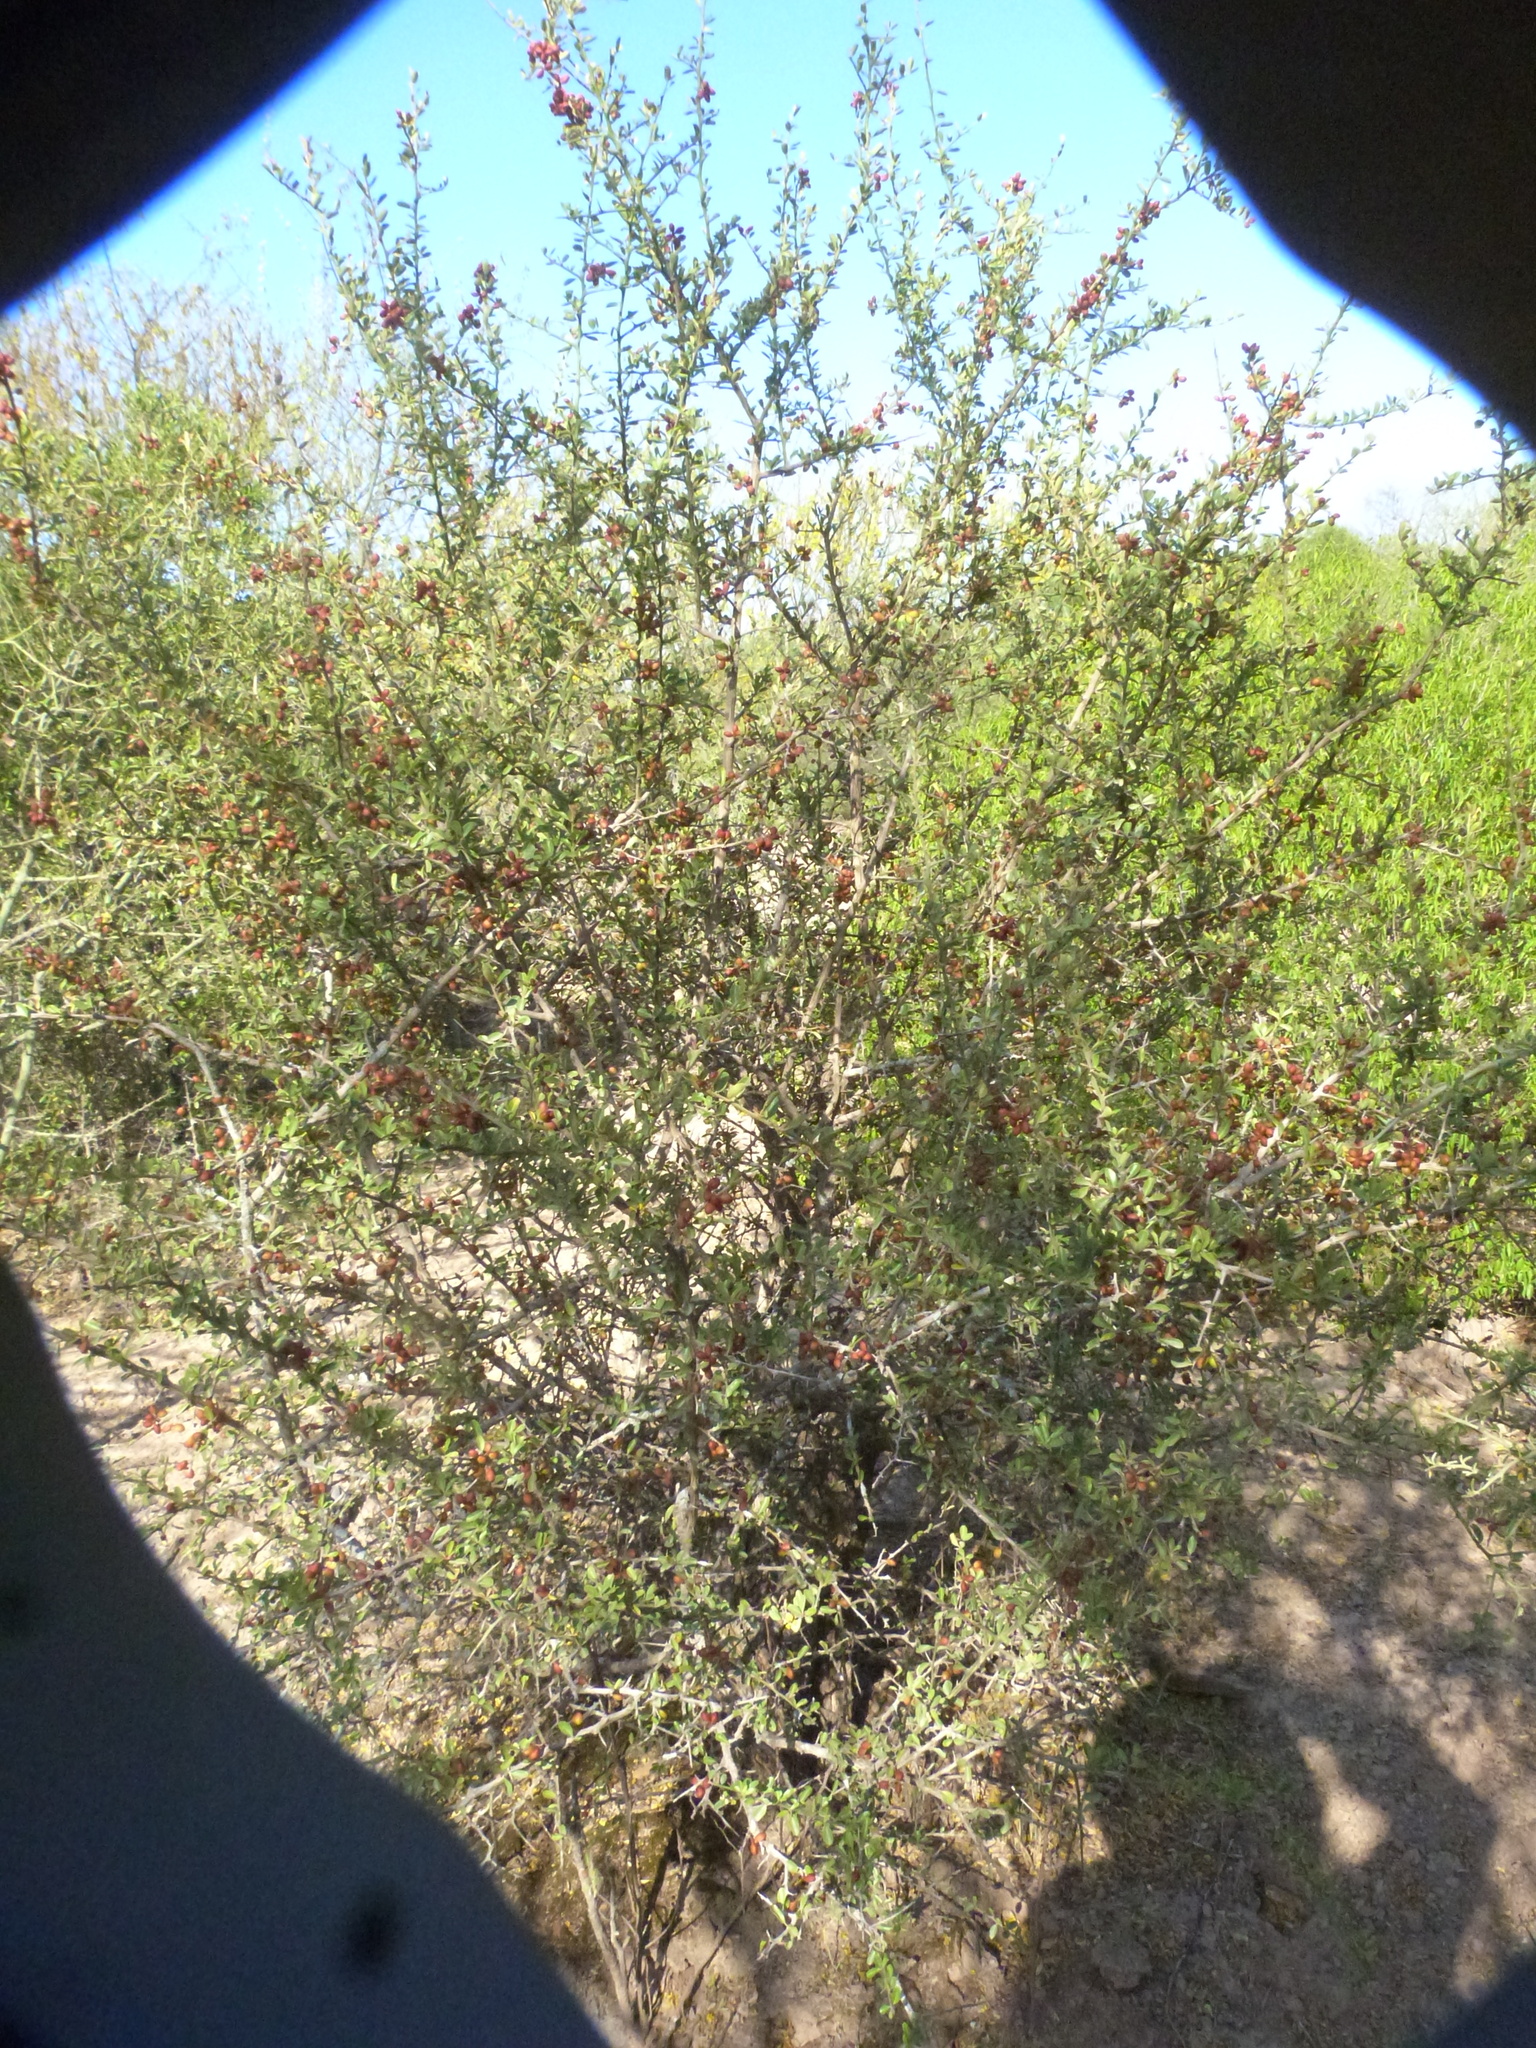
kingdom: Plantae
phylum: Tracheophyta
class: Magnoliopsida
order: Sapindales
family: Simaroubaceae
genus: Castela
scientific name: Castela coccinea
